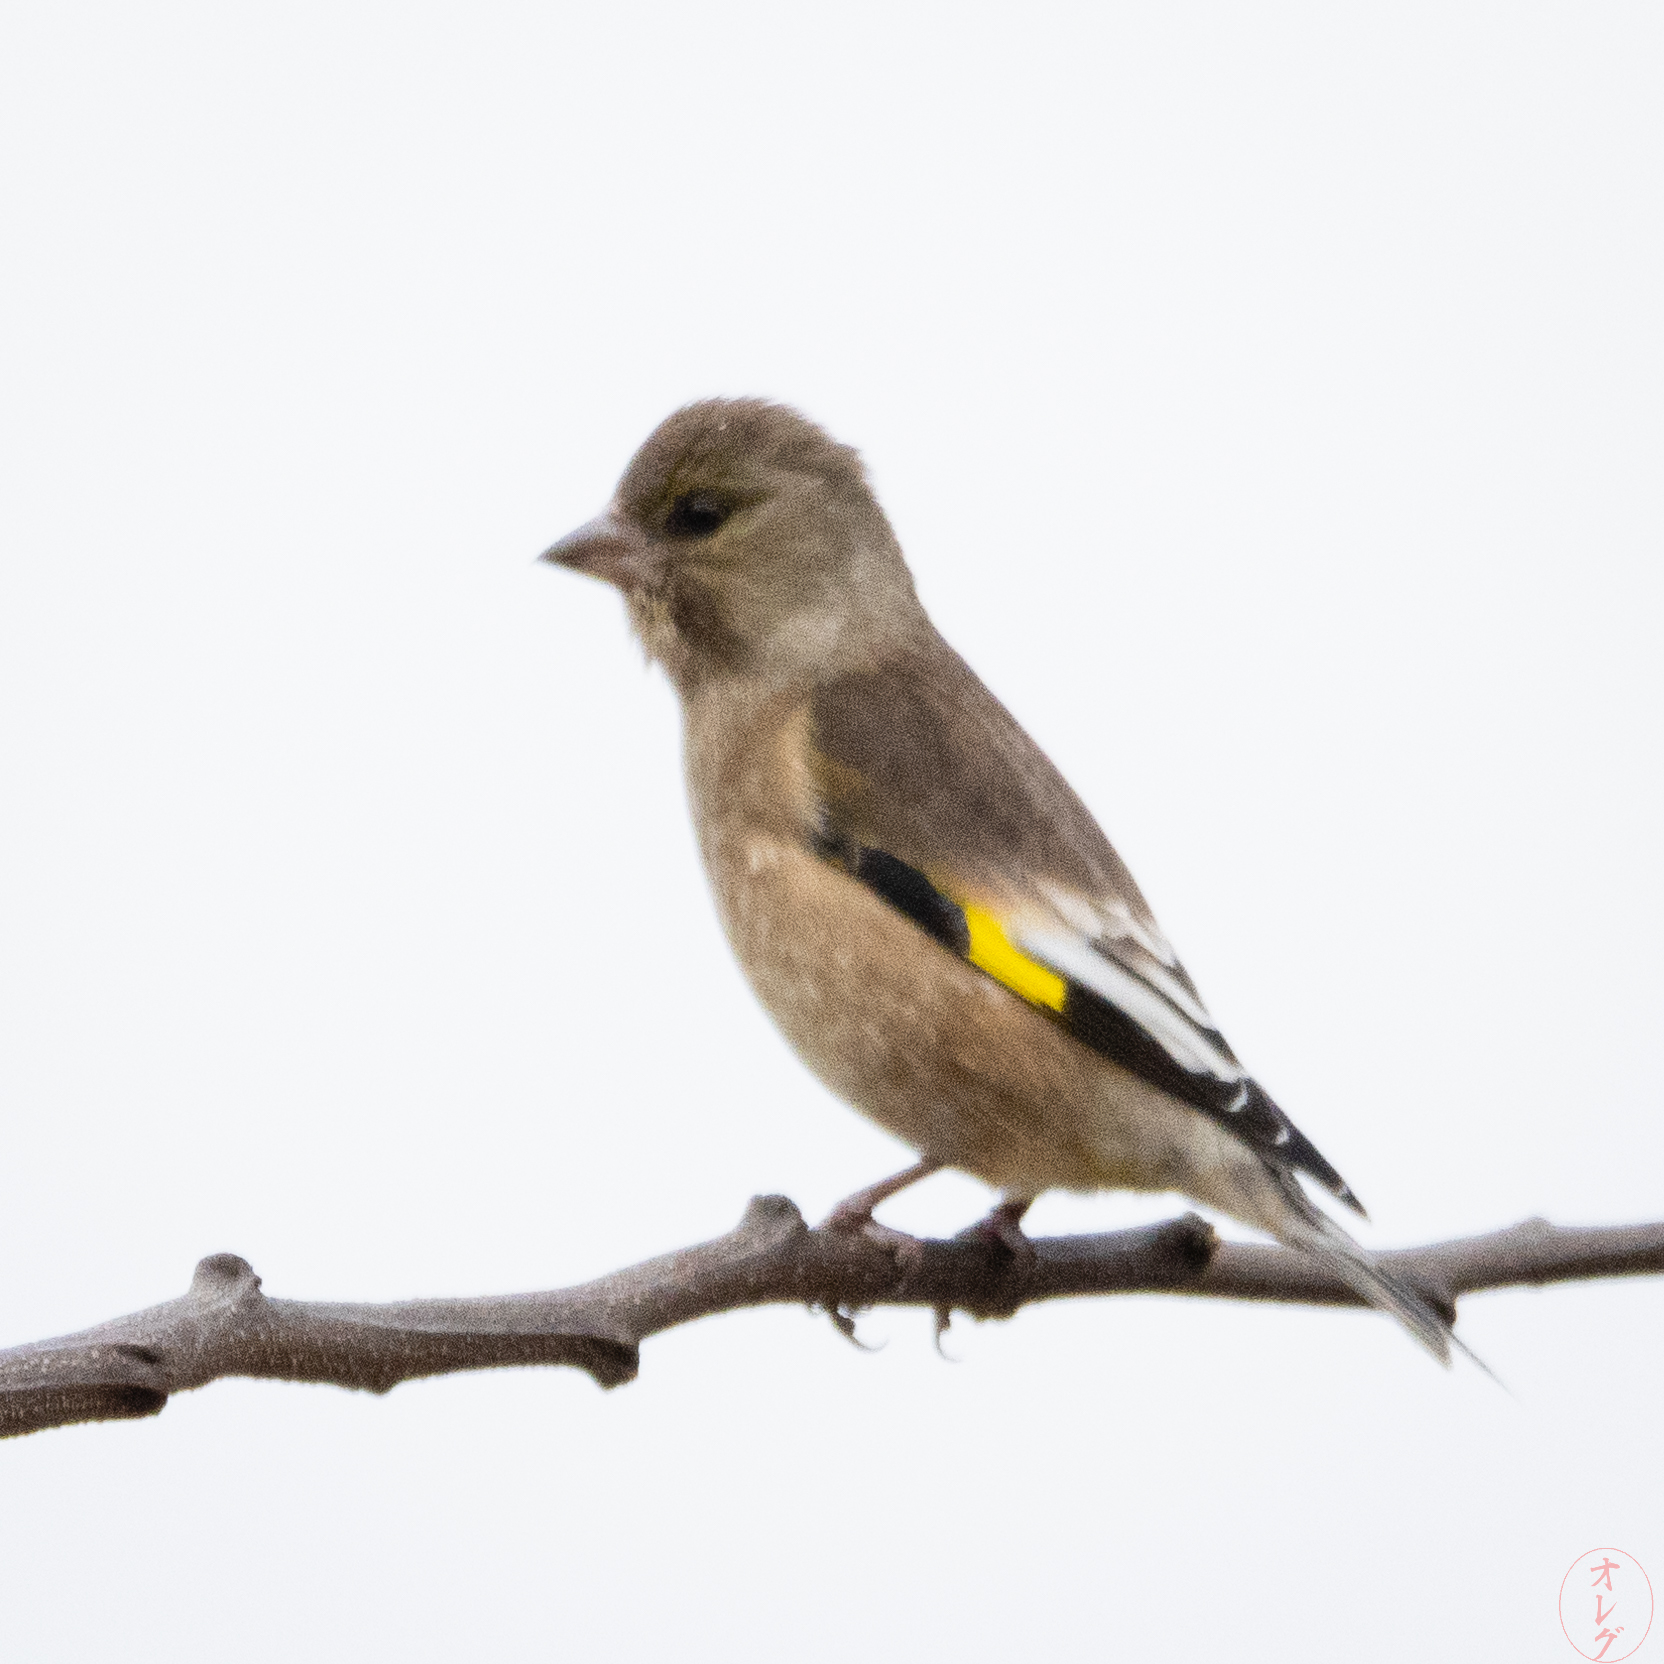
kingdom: Plantae
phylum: Tracheophyta
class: Liliopsida
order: Poales
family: Poaceae
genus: Chloris
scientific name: Chloris sinica
